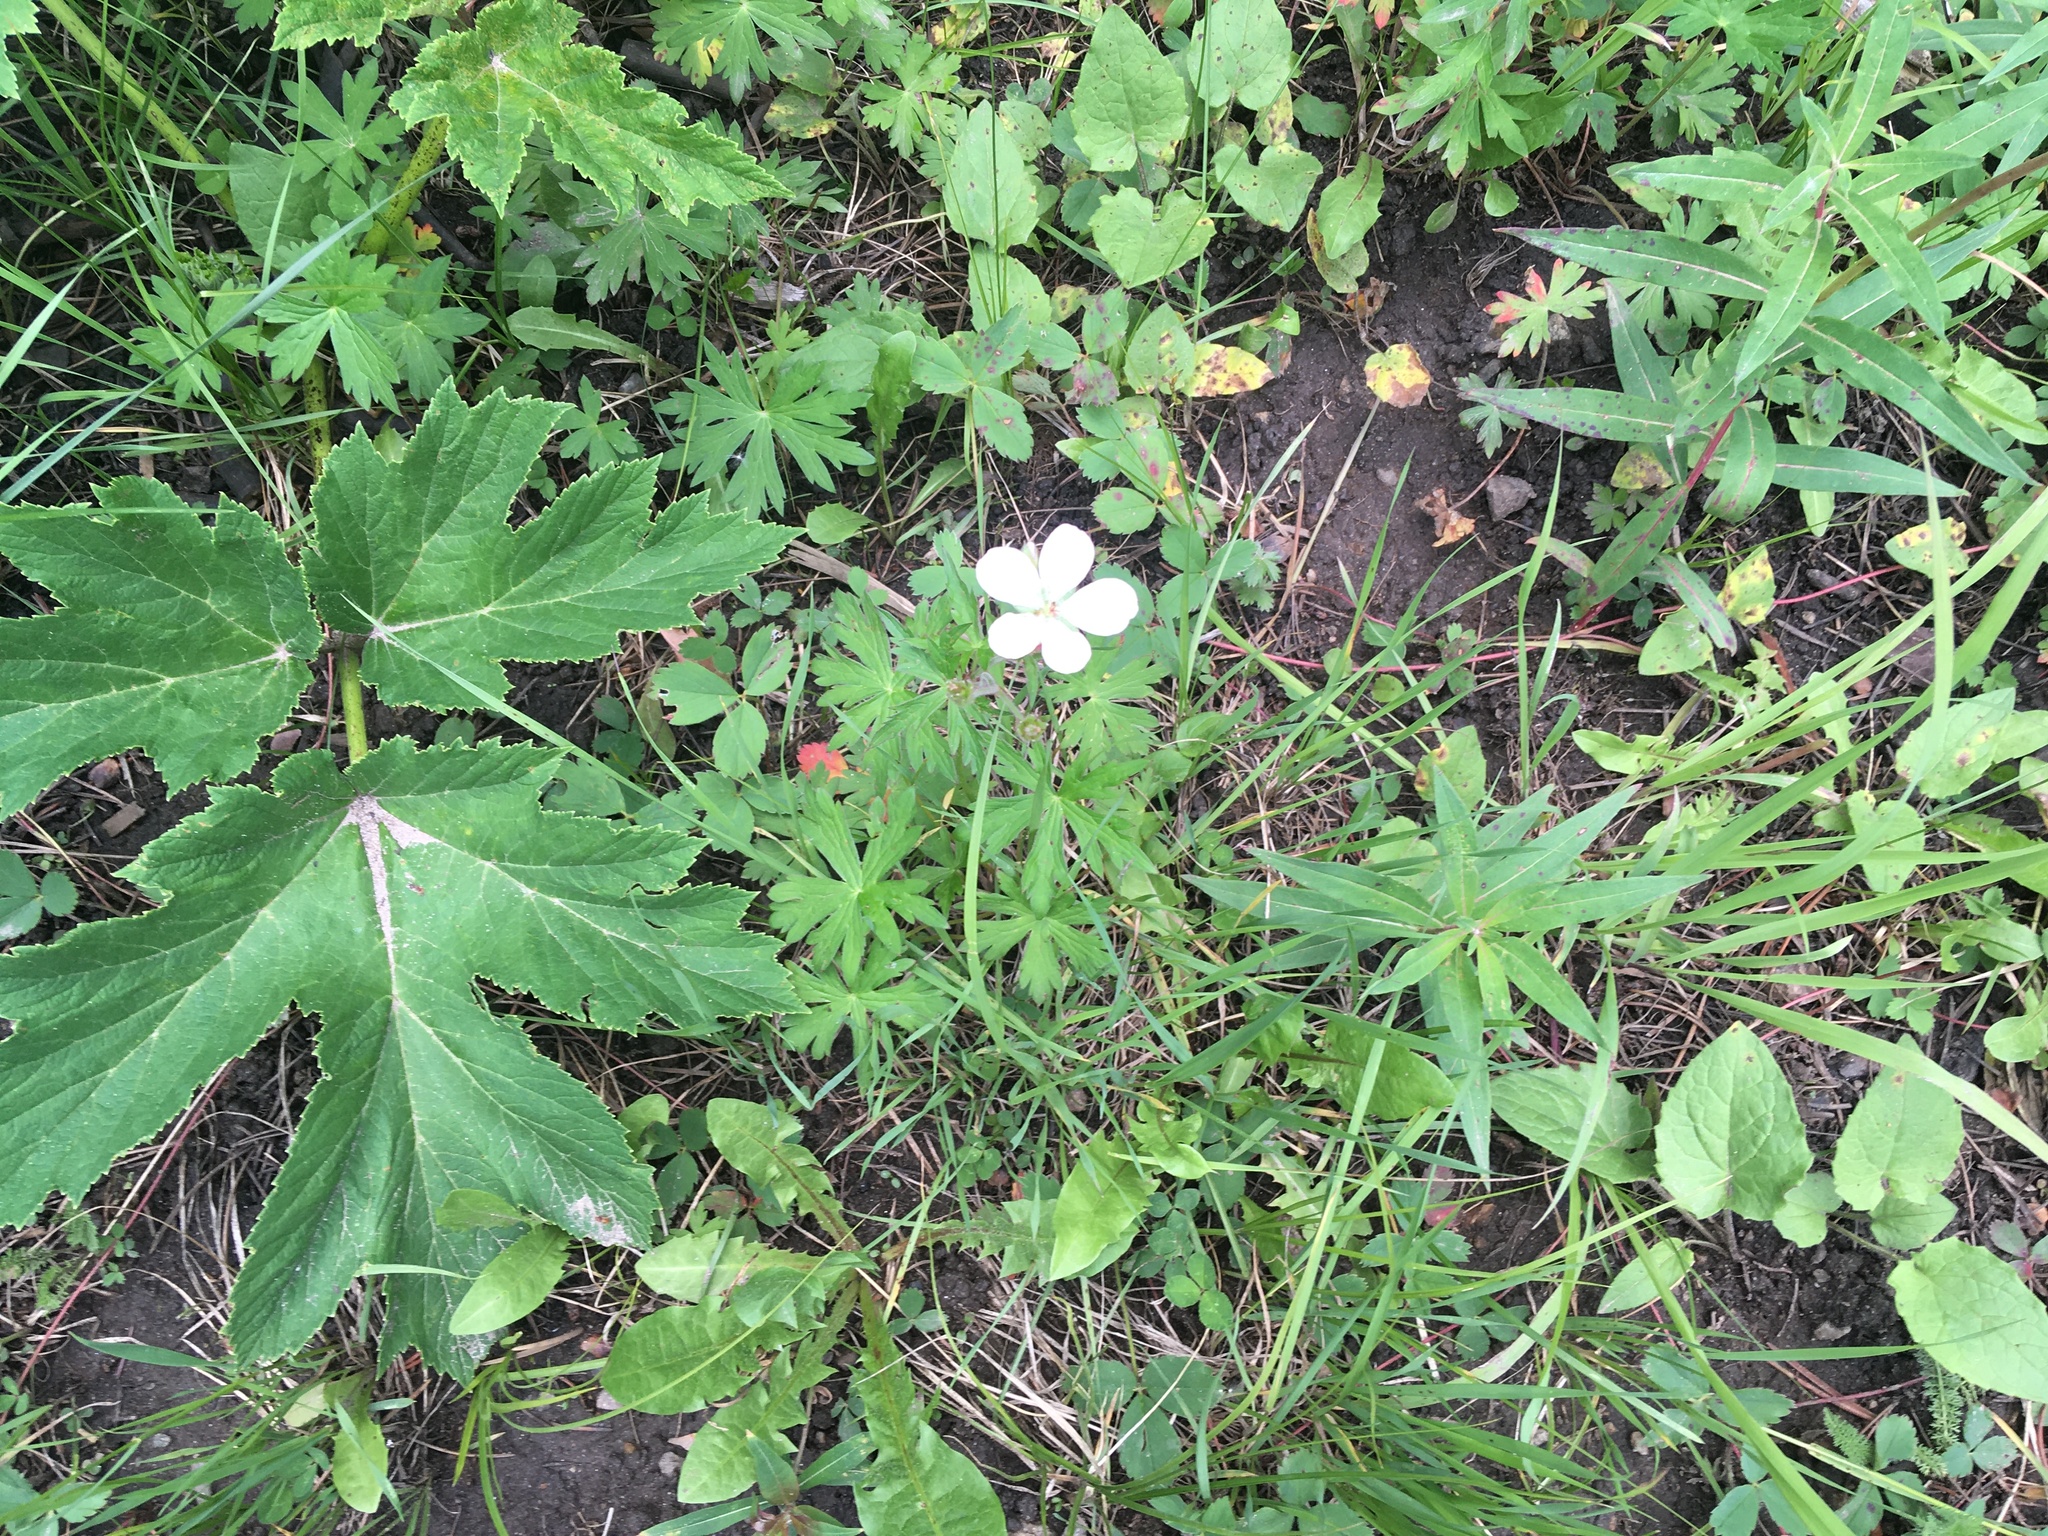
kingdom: Plantae
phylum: Tracheophyta
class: Magnoliopsida
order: Geraniales
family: Geraniaceae
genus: Geranium
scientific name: Geranium richardsonii
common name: Richardson's crane's-bill
